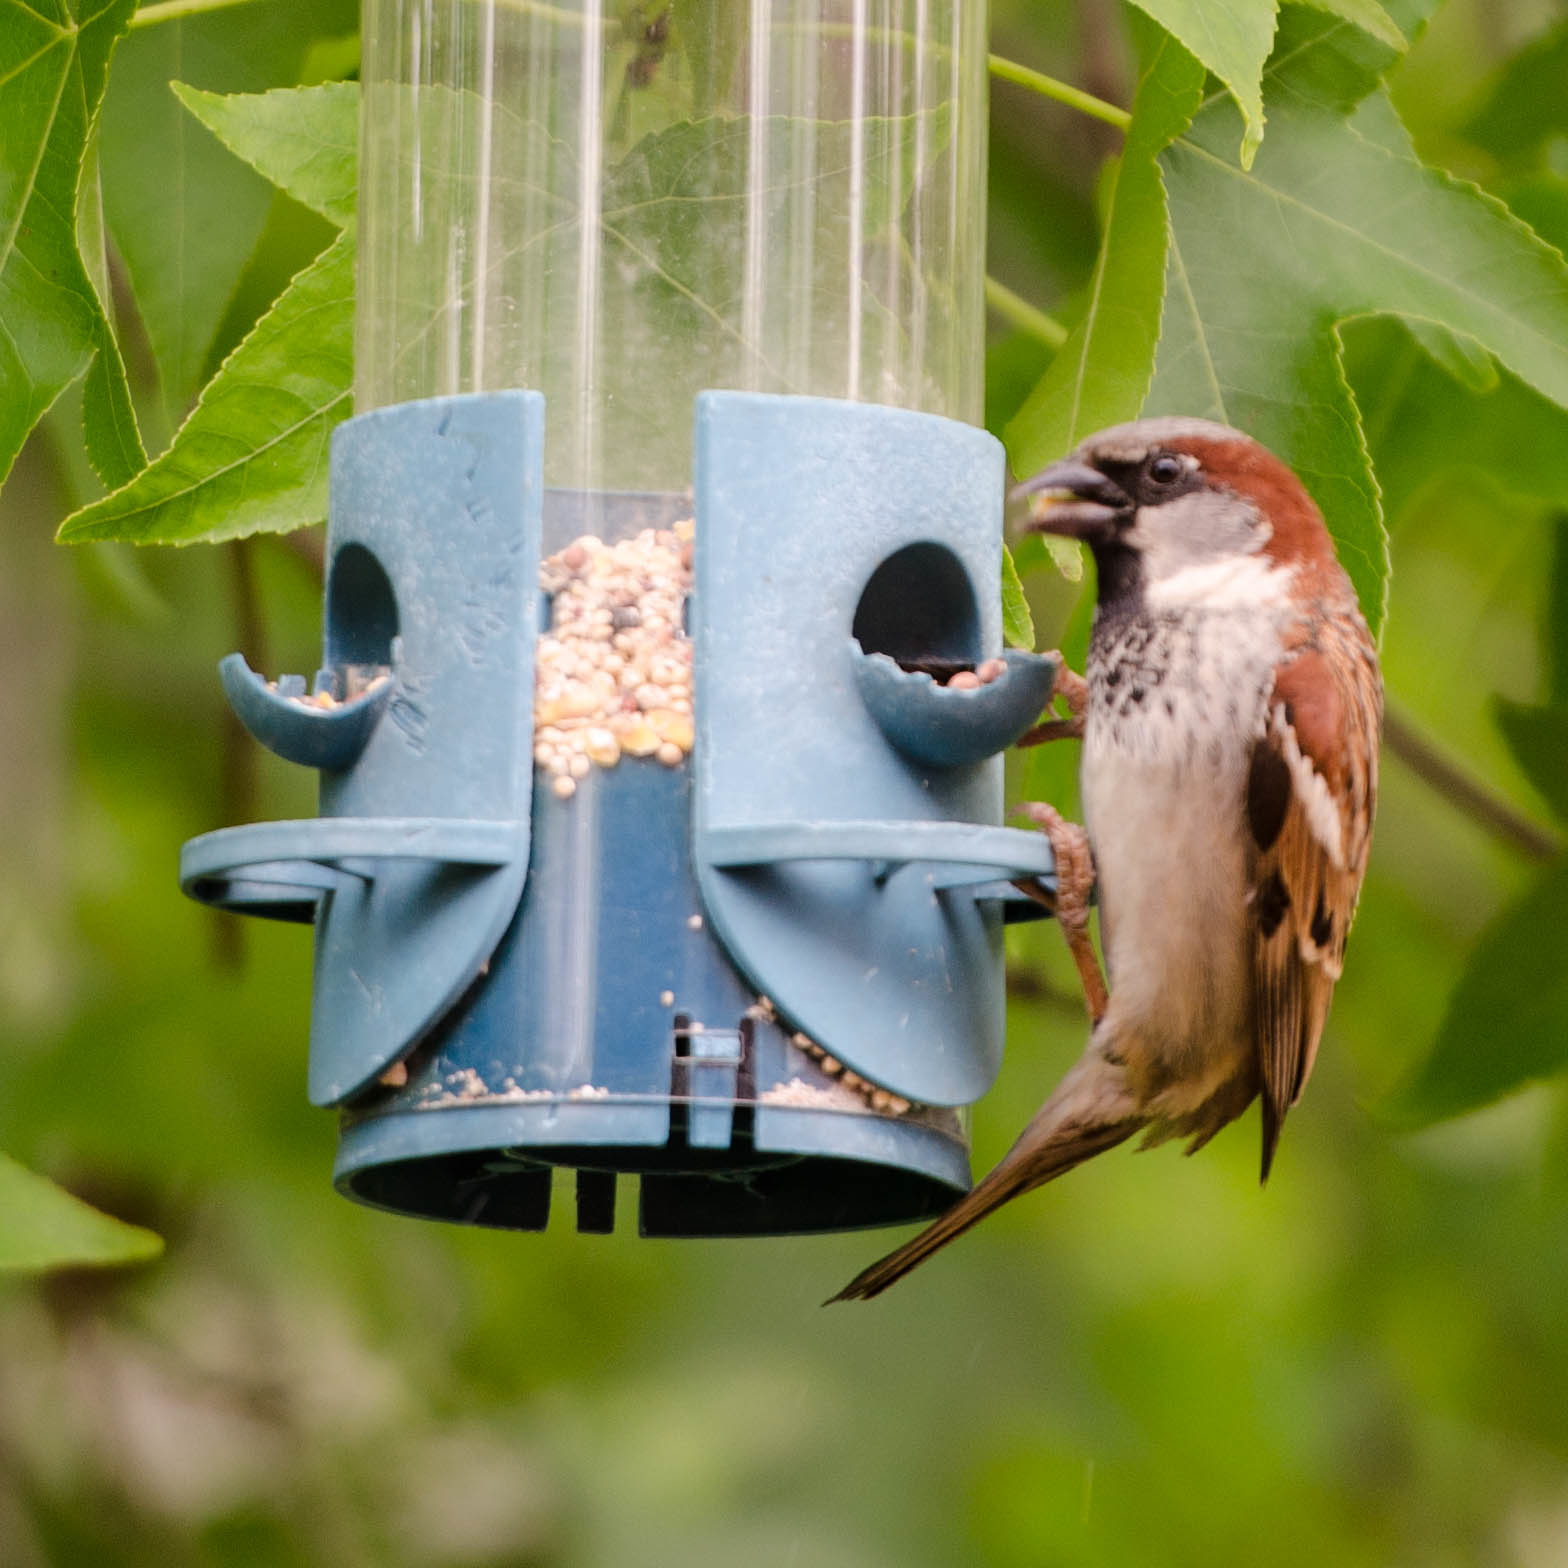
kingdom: Animalia
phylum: Chordata
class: Aves
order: Passeriformes
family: Passeridae
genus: Passer
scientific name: Passer domesticus
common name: House sparrow
